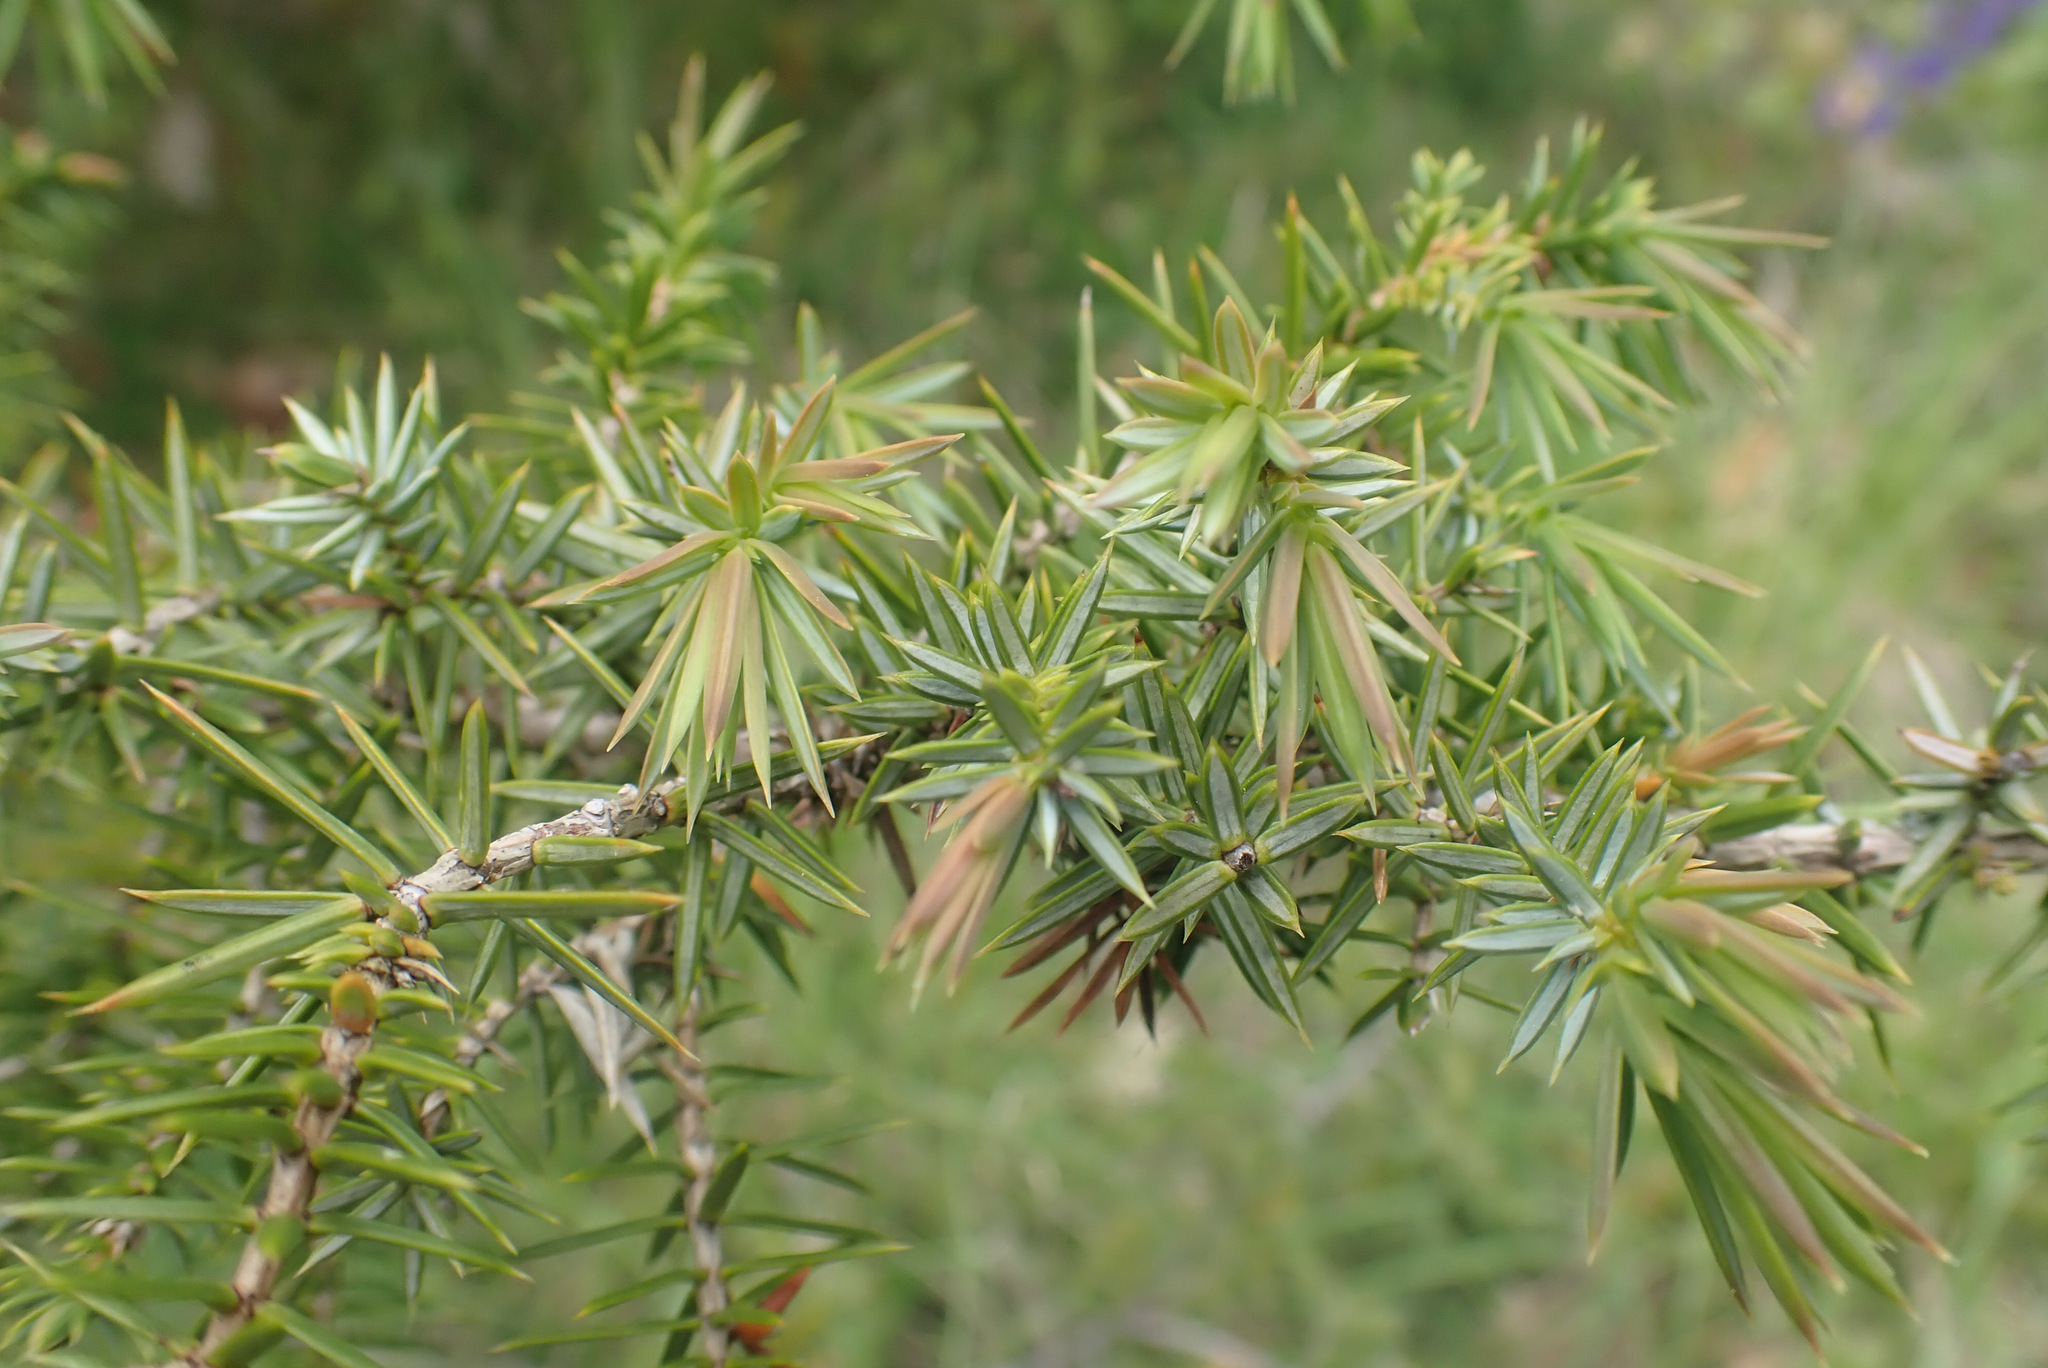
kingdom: Plantae
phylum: Tracheophyta
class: Pinopsida
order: Pinales
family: Cupressaceae
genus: Juniperus
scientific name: Juniperus communis
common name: Common juniper
